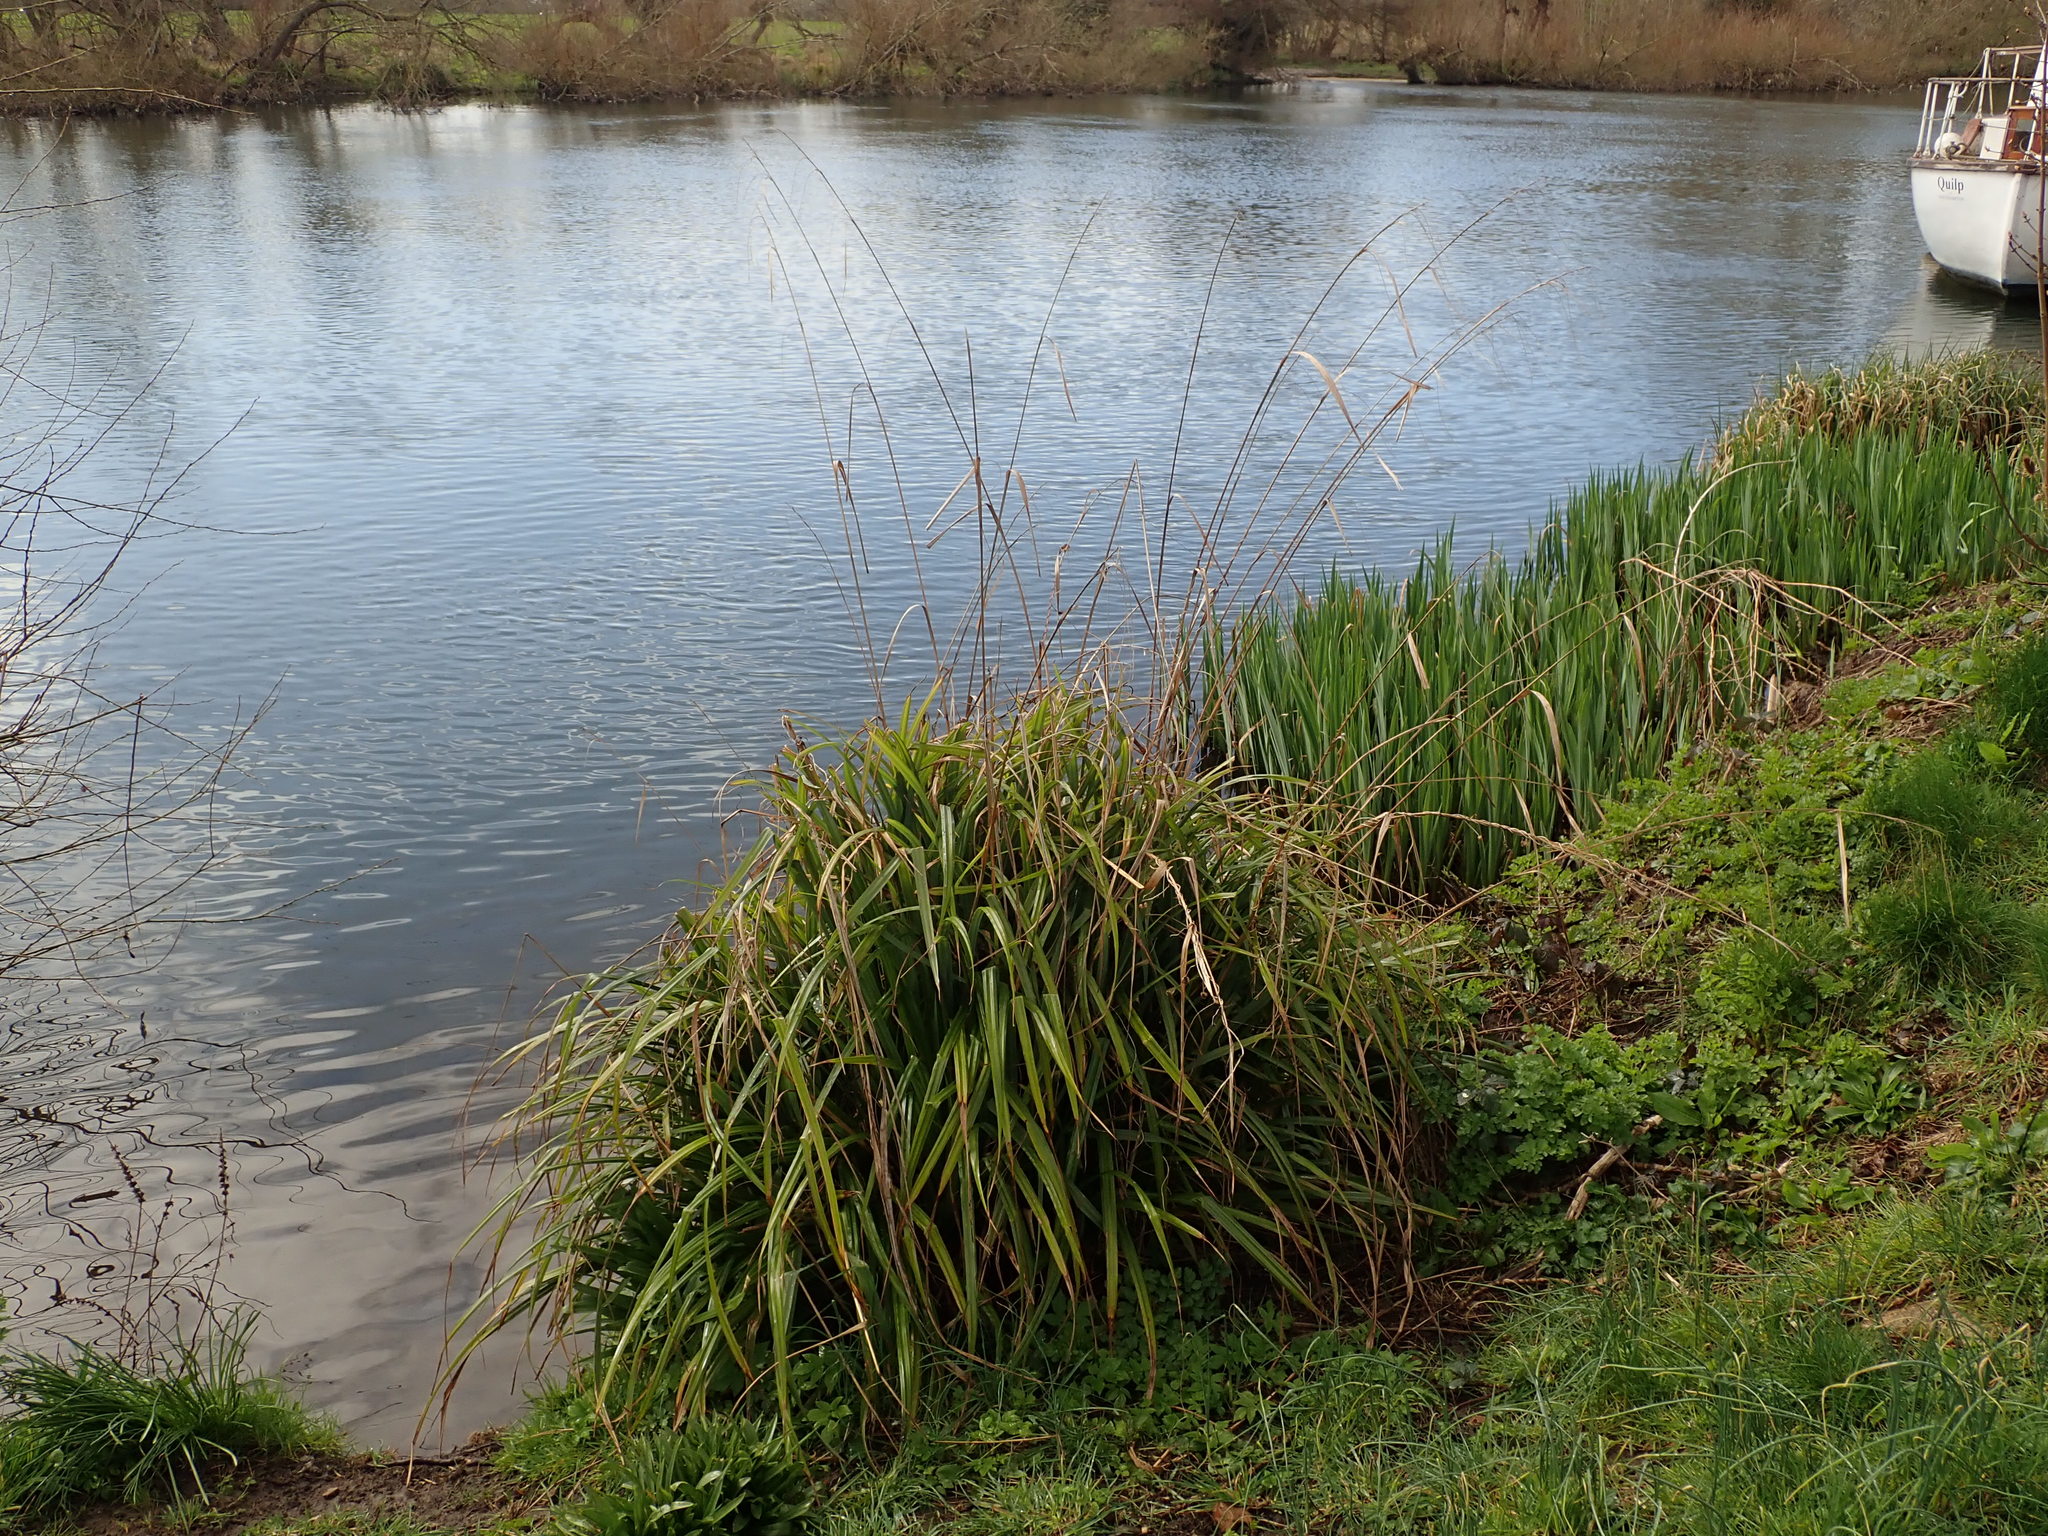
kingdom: Plantae
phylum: Tracheophyta
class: Liliopsida
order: Poales
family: Cyperaceae
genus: Carex
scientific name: Carex pendula
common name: Pendulous sedge
